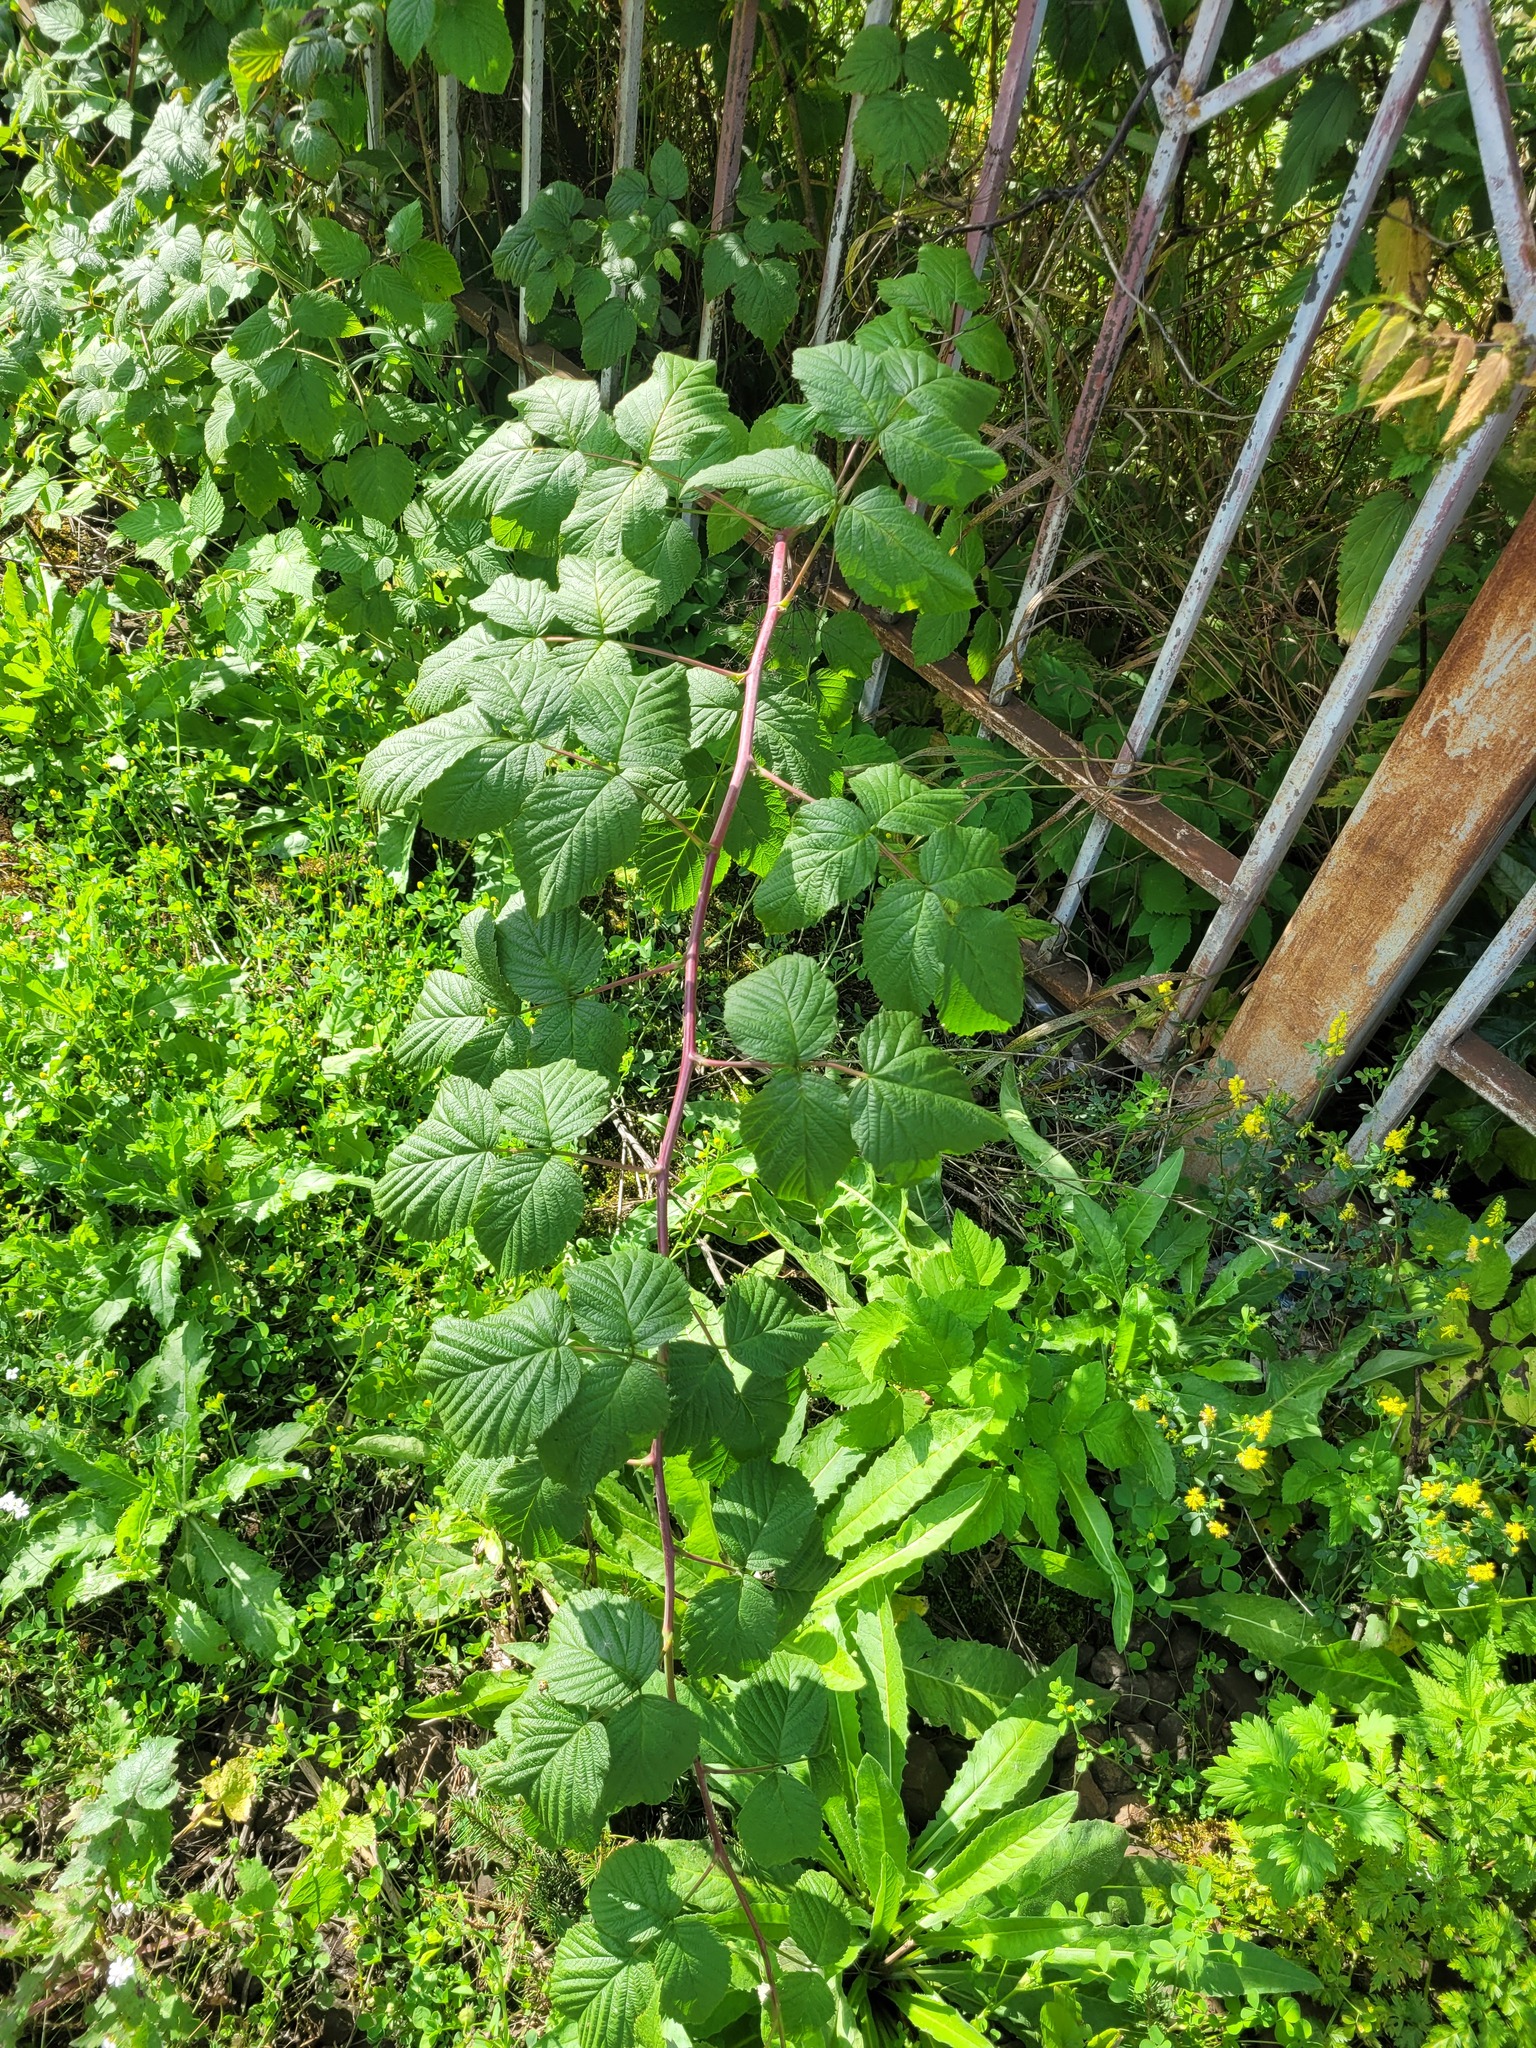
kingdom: Plantae
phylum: Tracheophyta
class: Magnoliopsida
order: Rosales
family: Rosaceae
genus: Rubus
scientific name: Rubus idaeus
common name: Raspberry
